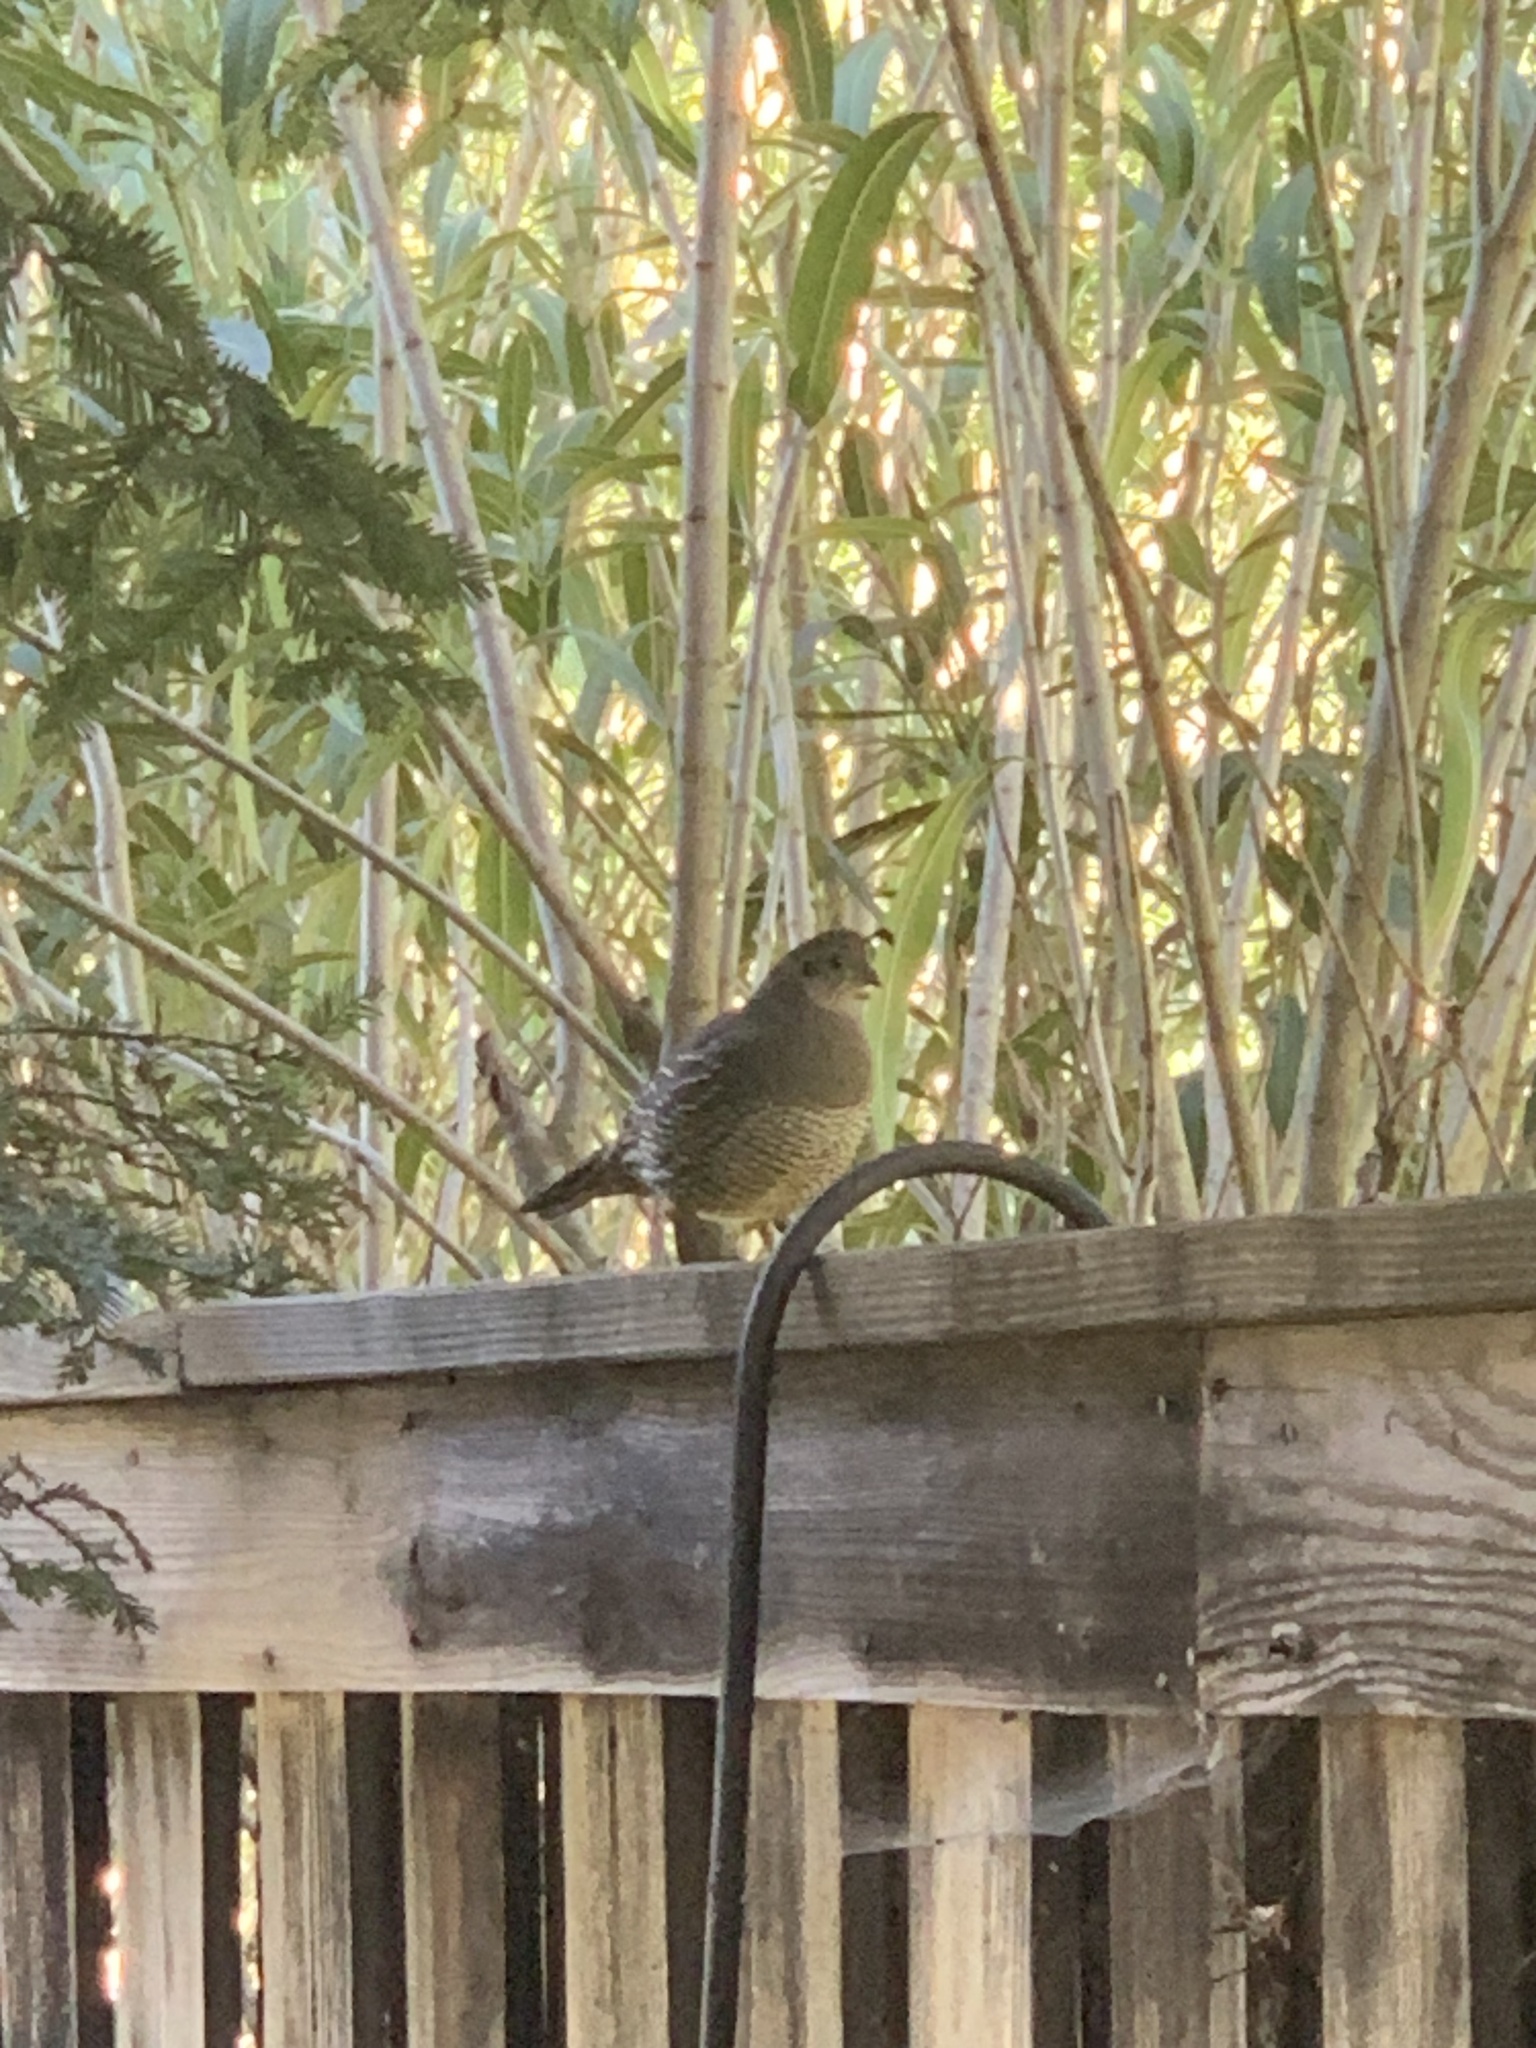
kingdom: Animalia
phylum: Chordata
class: Aves
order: Galliformes
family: Odontophoridae
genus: Callipepla
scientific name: Callipepla californica
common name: California quail
